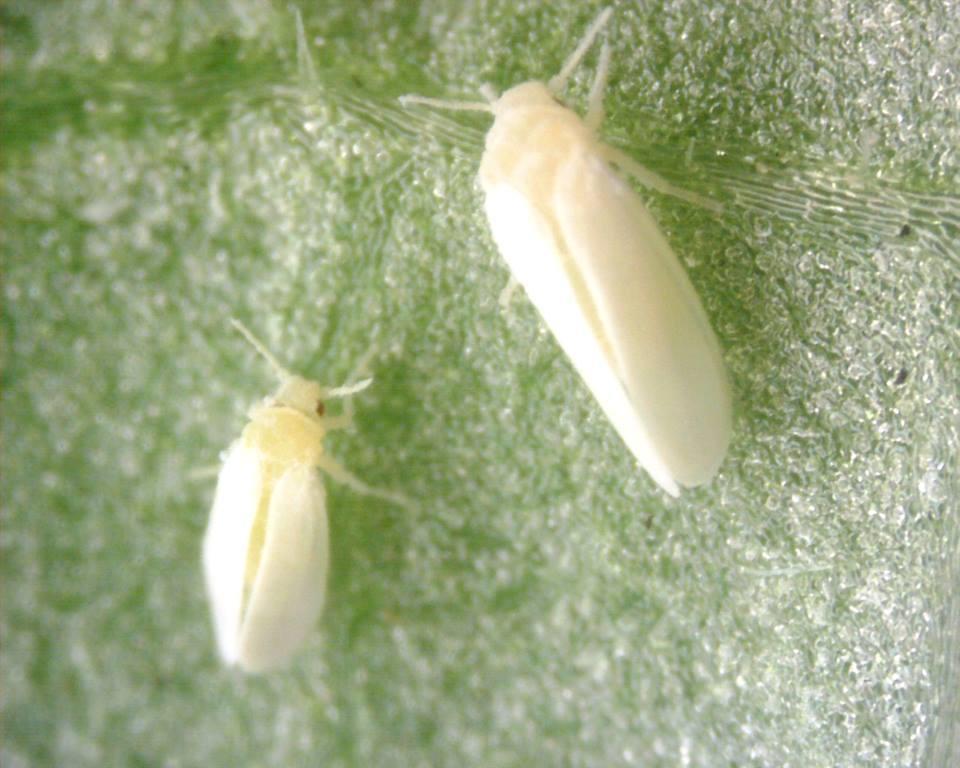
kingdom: Animalia
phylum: Arthropoda
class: Insecta
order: Hemiptera
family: Aleyrodidae
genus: Bemisia
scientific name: Bemisia tabaci
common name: Sweetpotato whitefly
